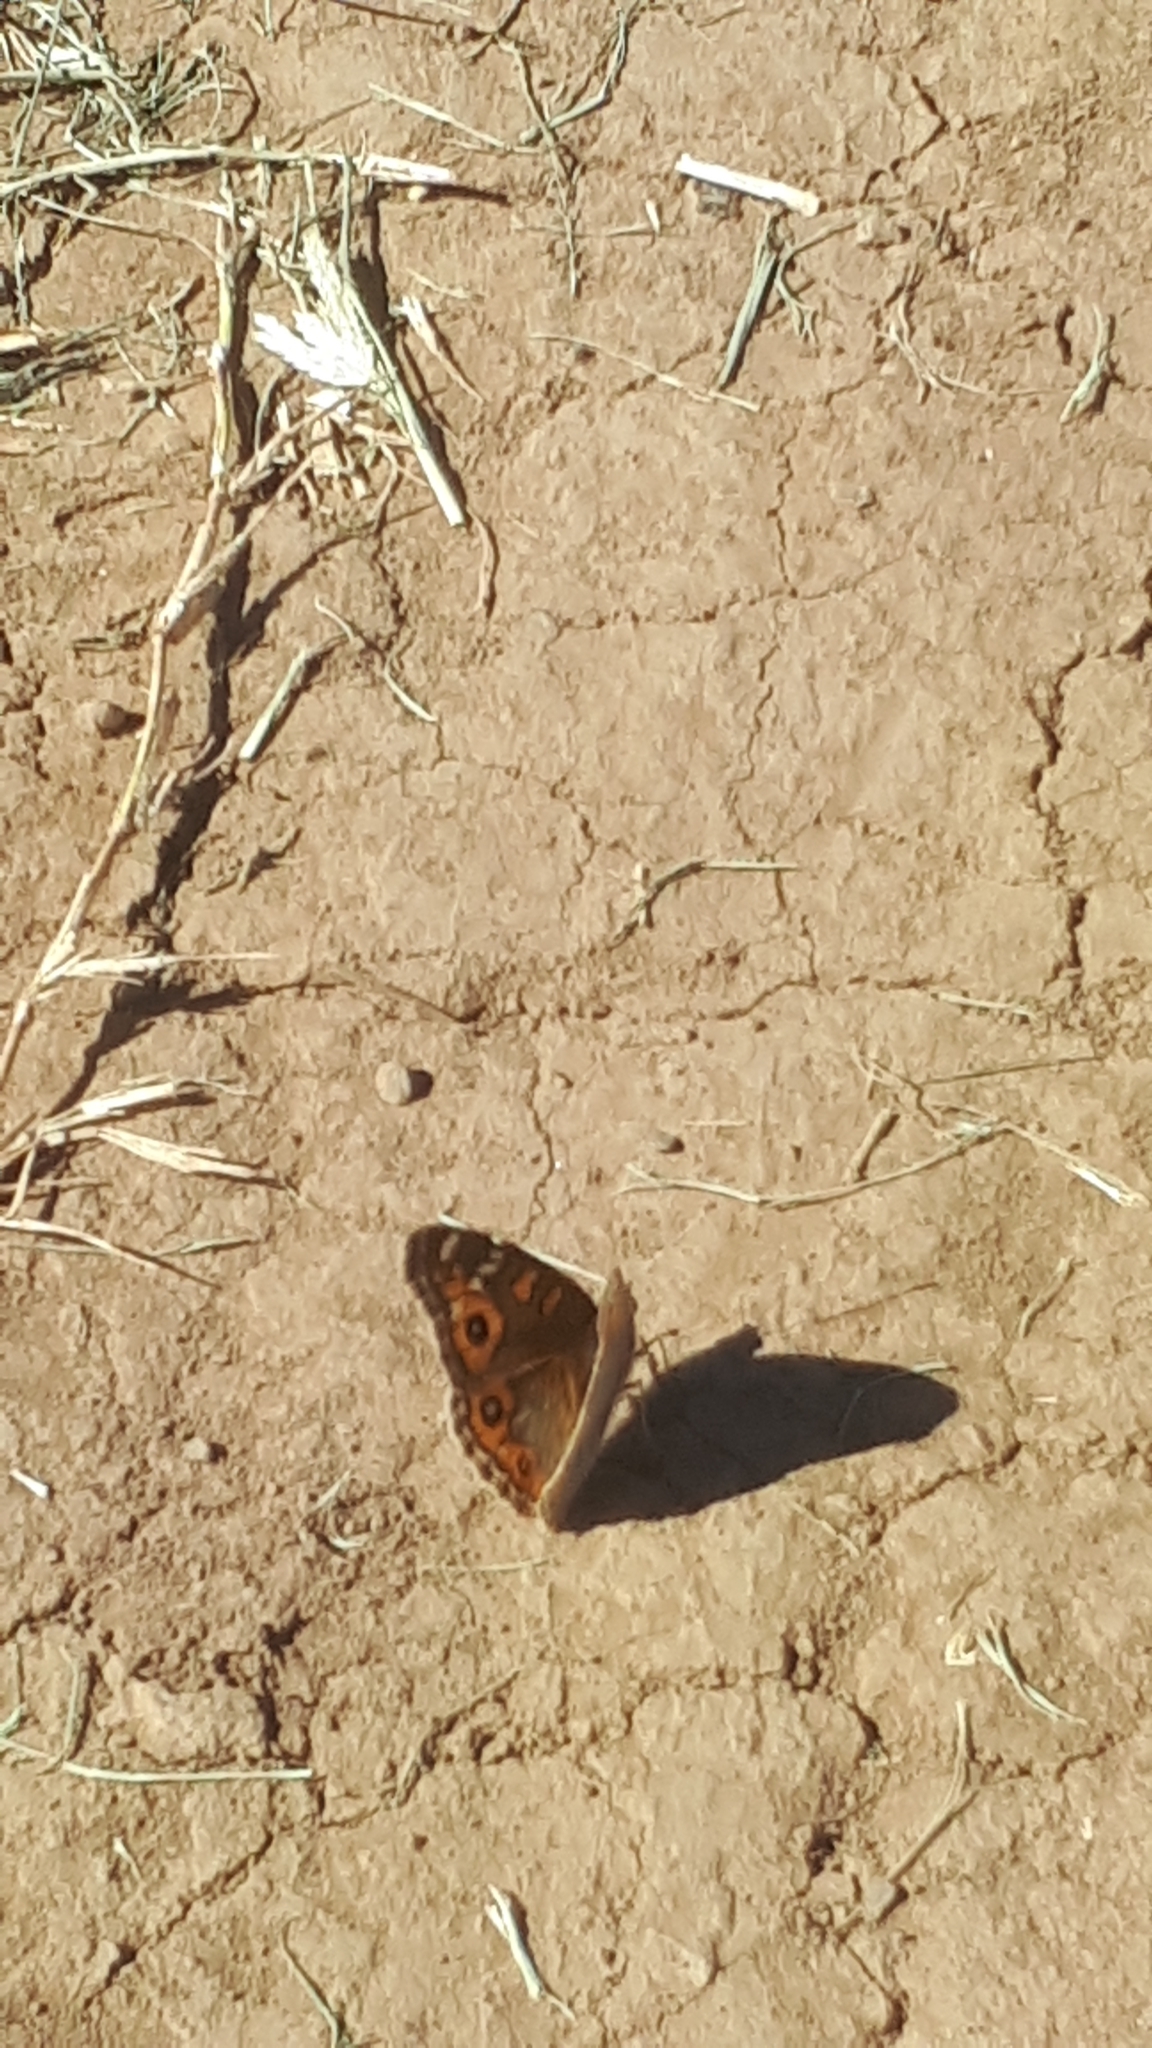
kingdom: Animalia
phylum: Arthropoda
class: Insecta
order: Lepidoptera
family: Nymphalidae
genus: Junonia
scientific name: Junonia villida
